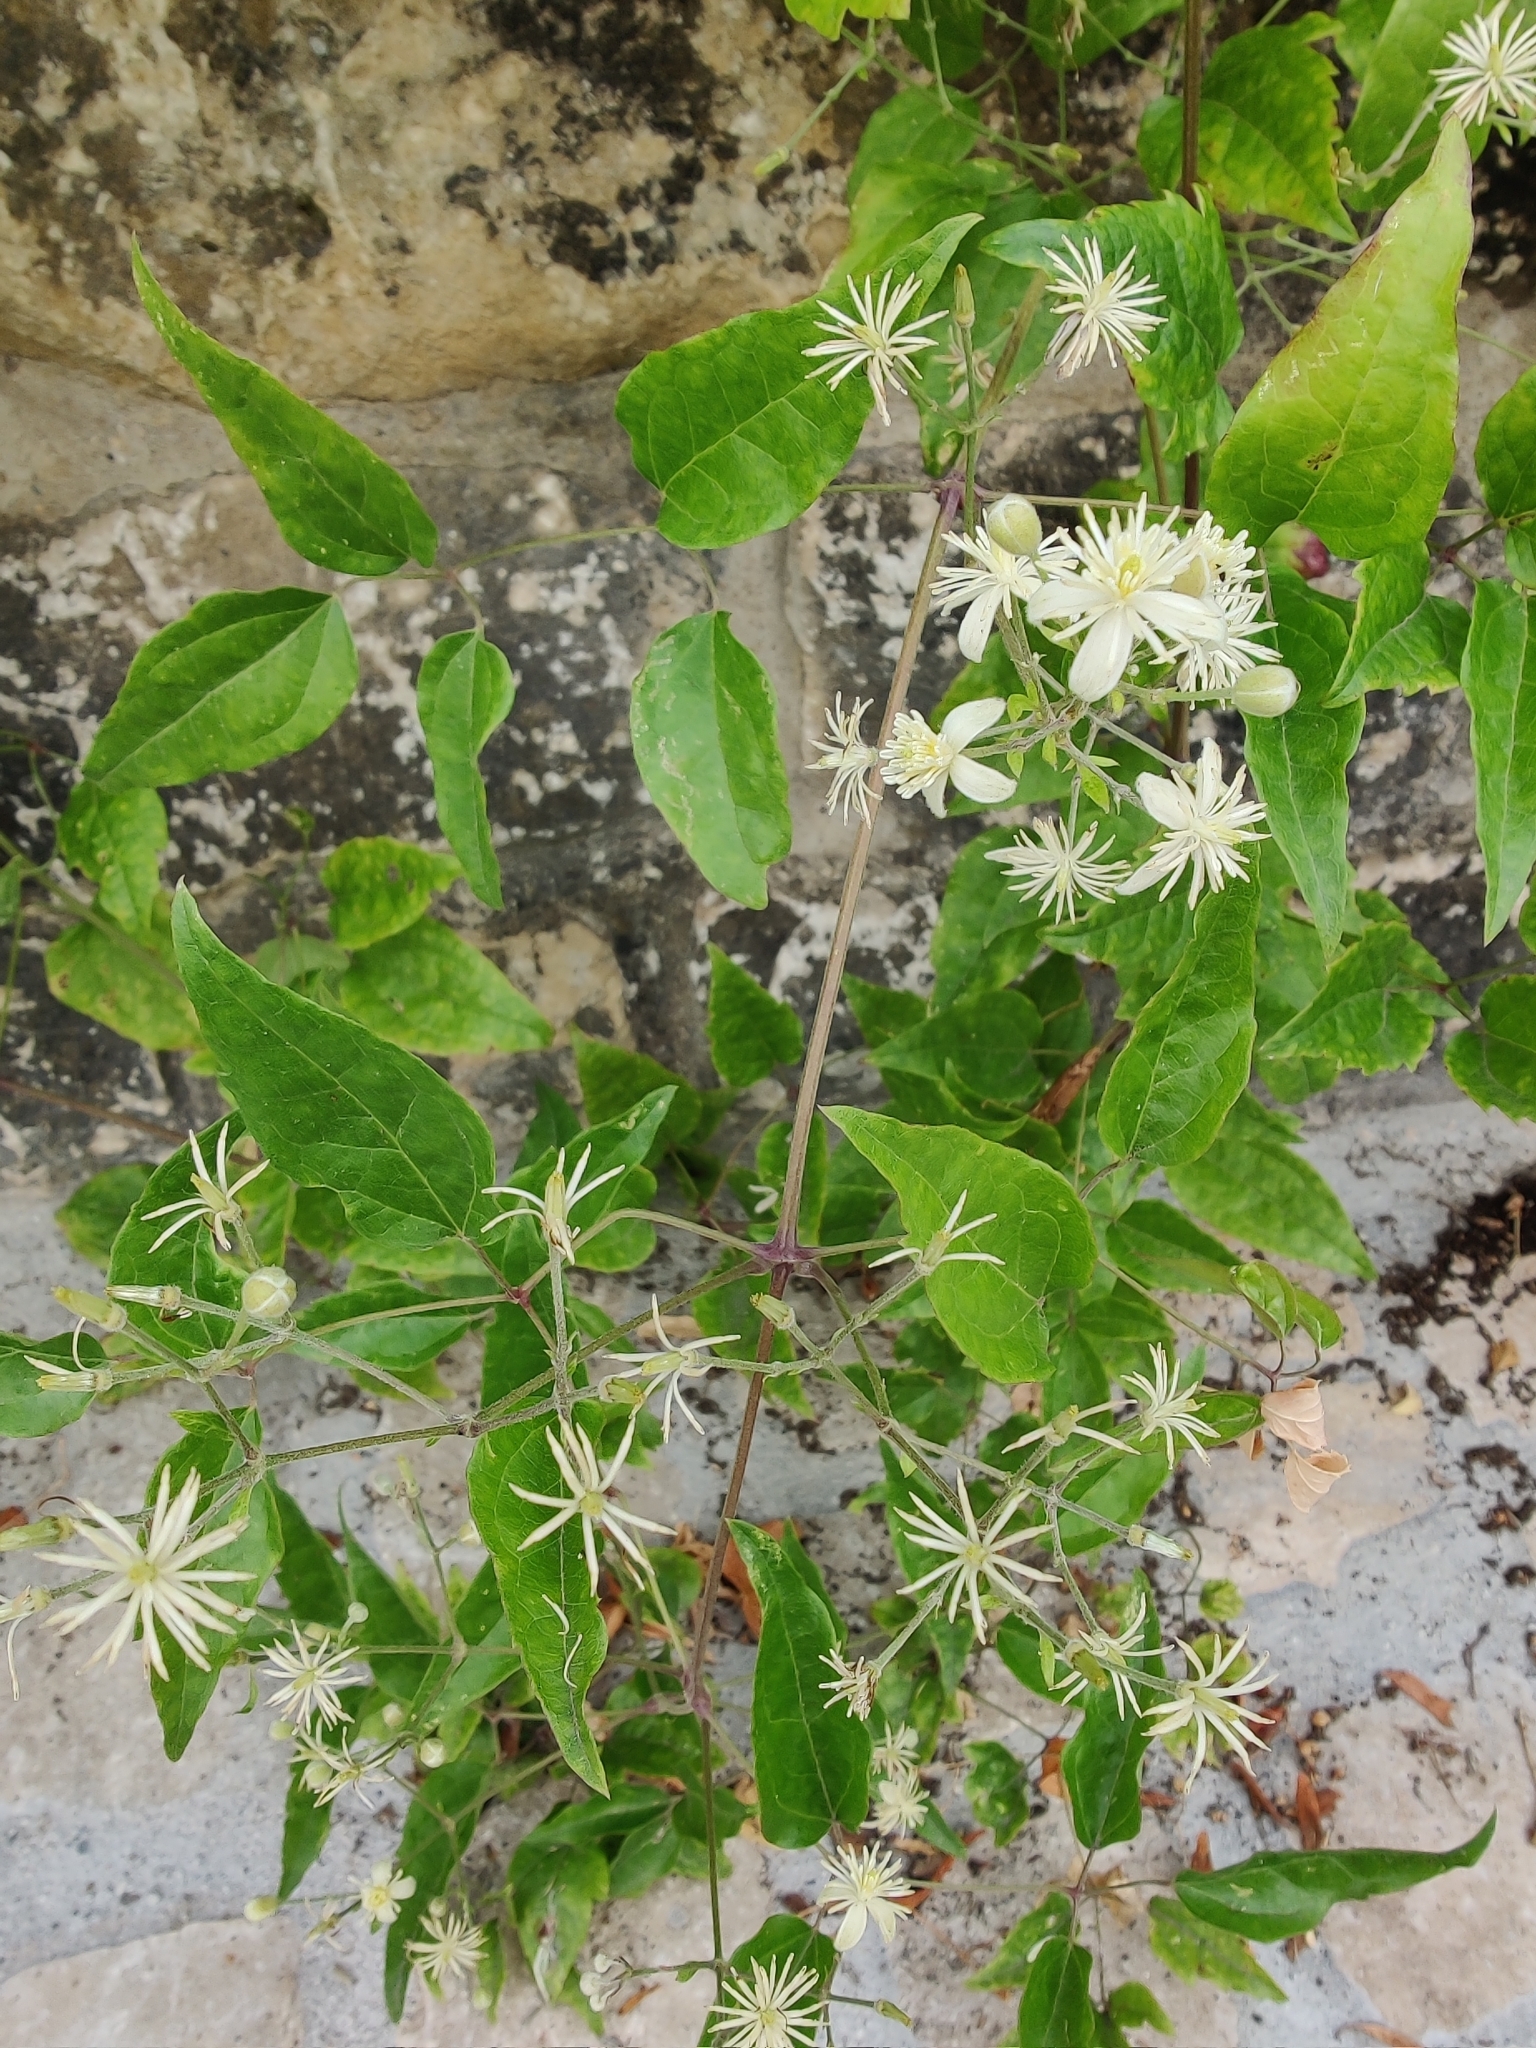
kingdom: Plantae
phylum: Tracheophyta
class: Magnoliopsida
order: Ranunculales
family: Ranunculaceae
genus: Clematis
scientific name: Clematis vitalba
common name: Evergreen clematis
